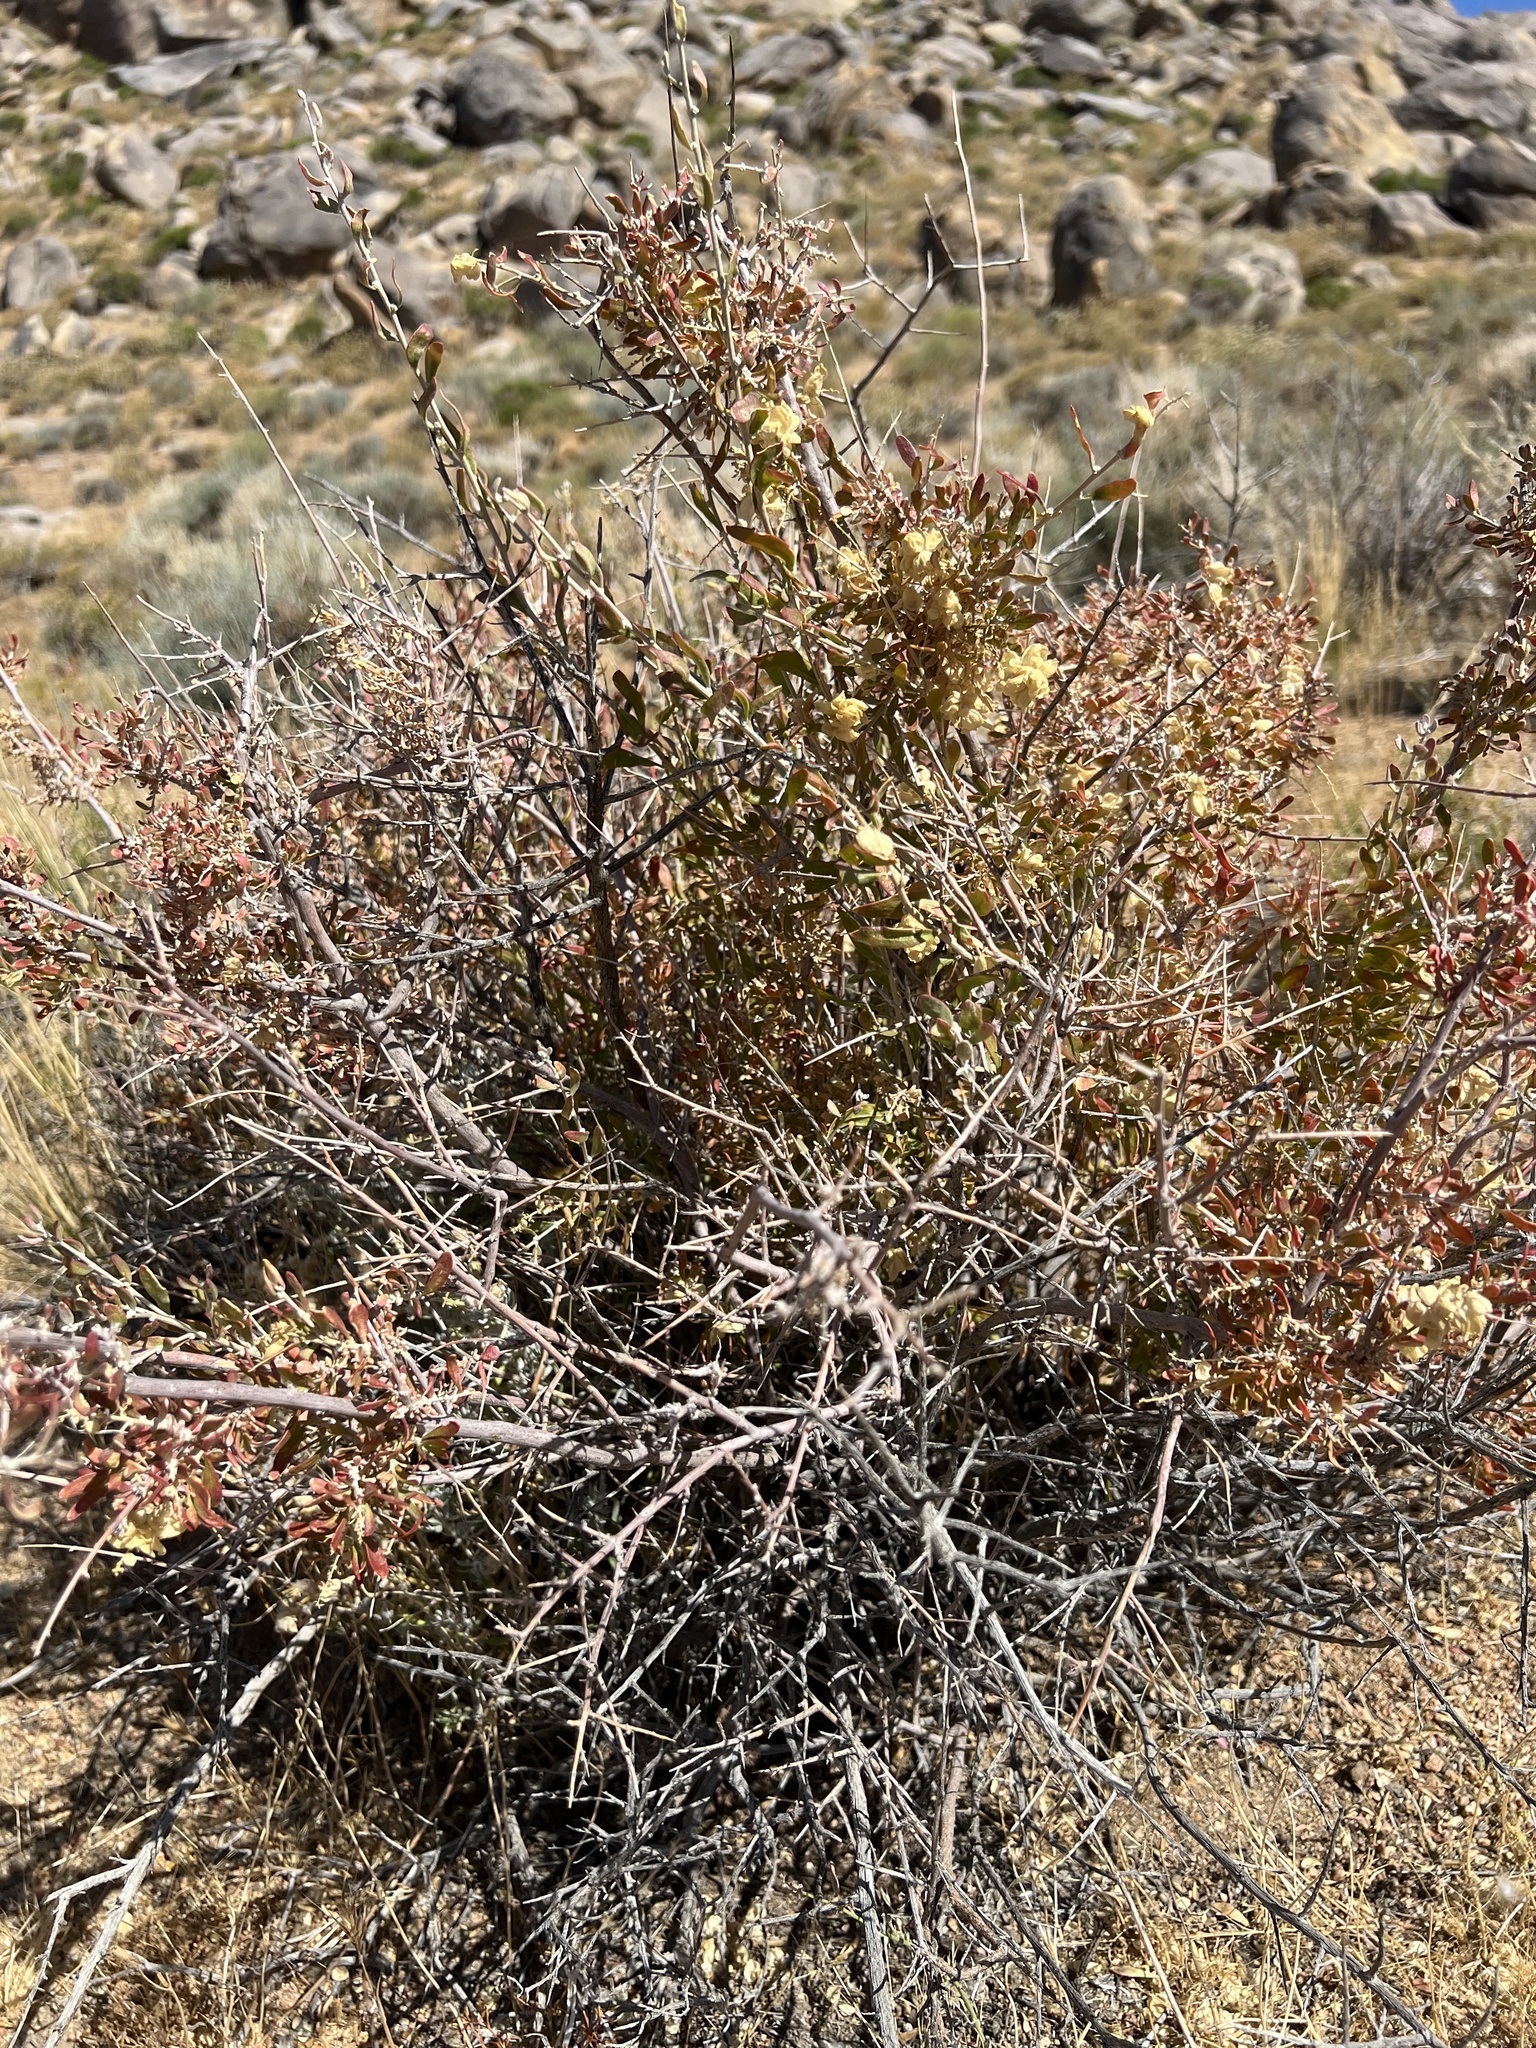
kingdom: Plantae
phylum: Tracheophyta
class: Magnoliopsida
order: Caryophyllales
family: Amaranthaceae
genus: Grayia
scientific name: Grayia spinosa
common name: Spiny hopsage
